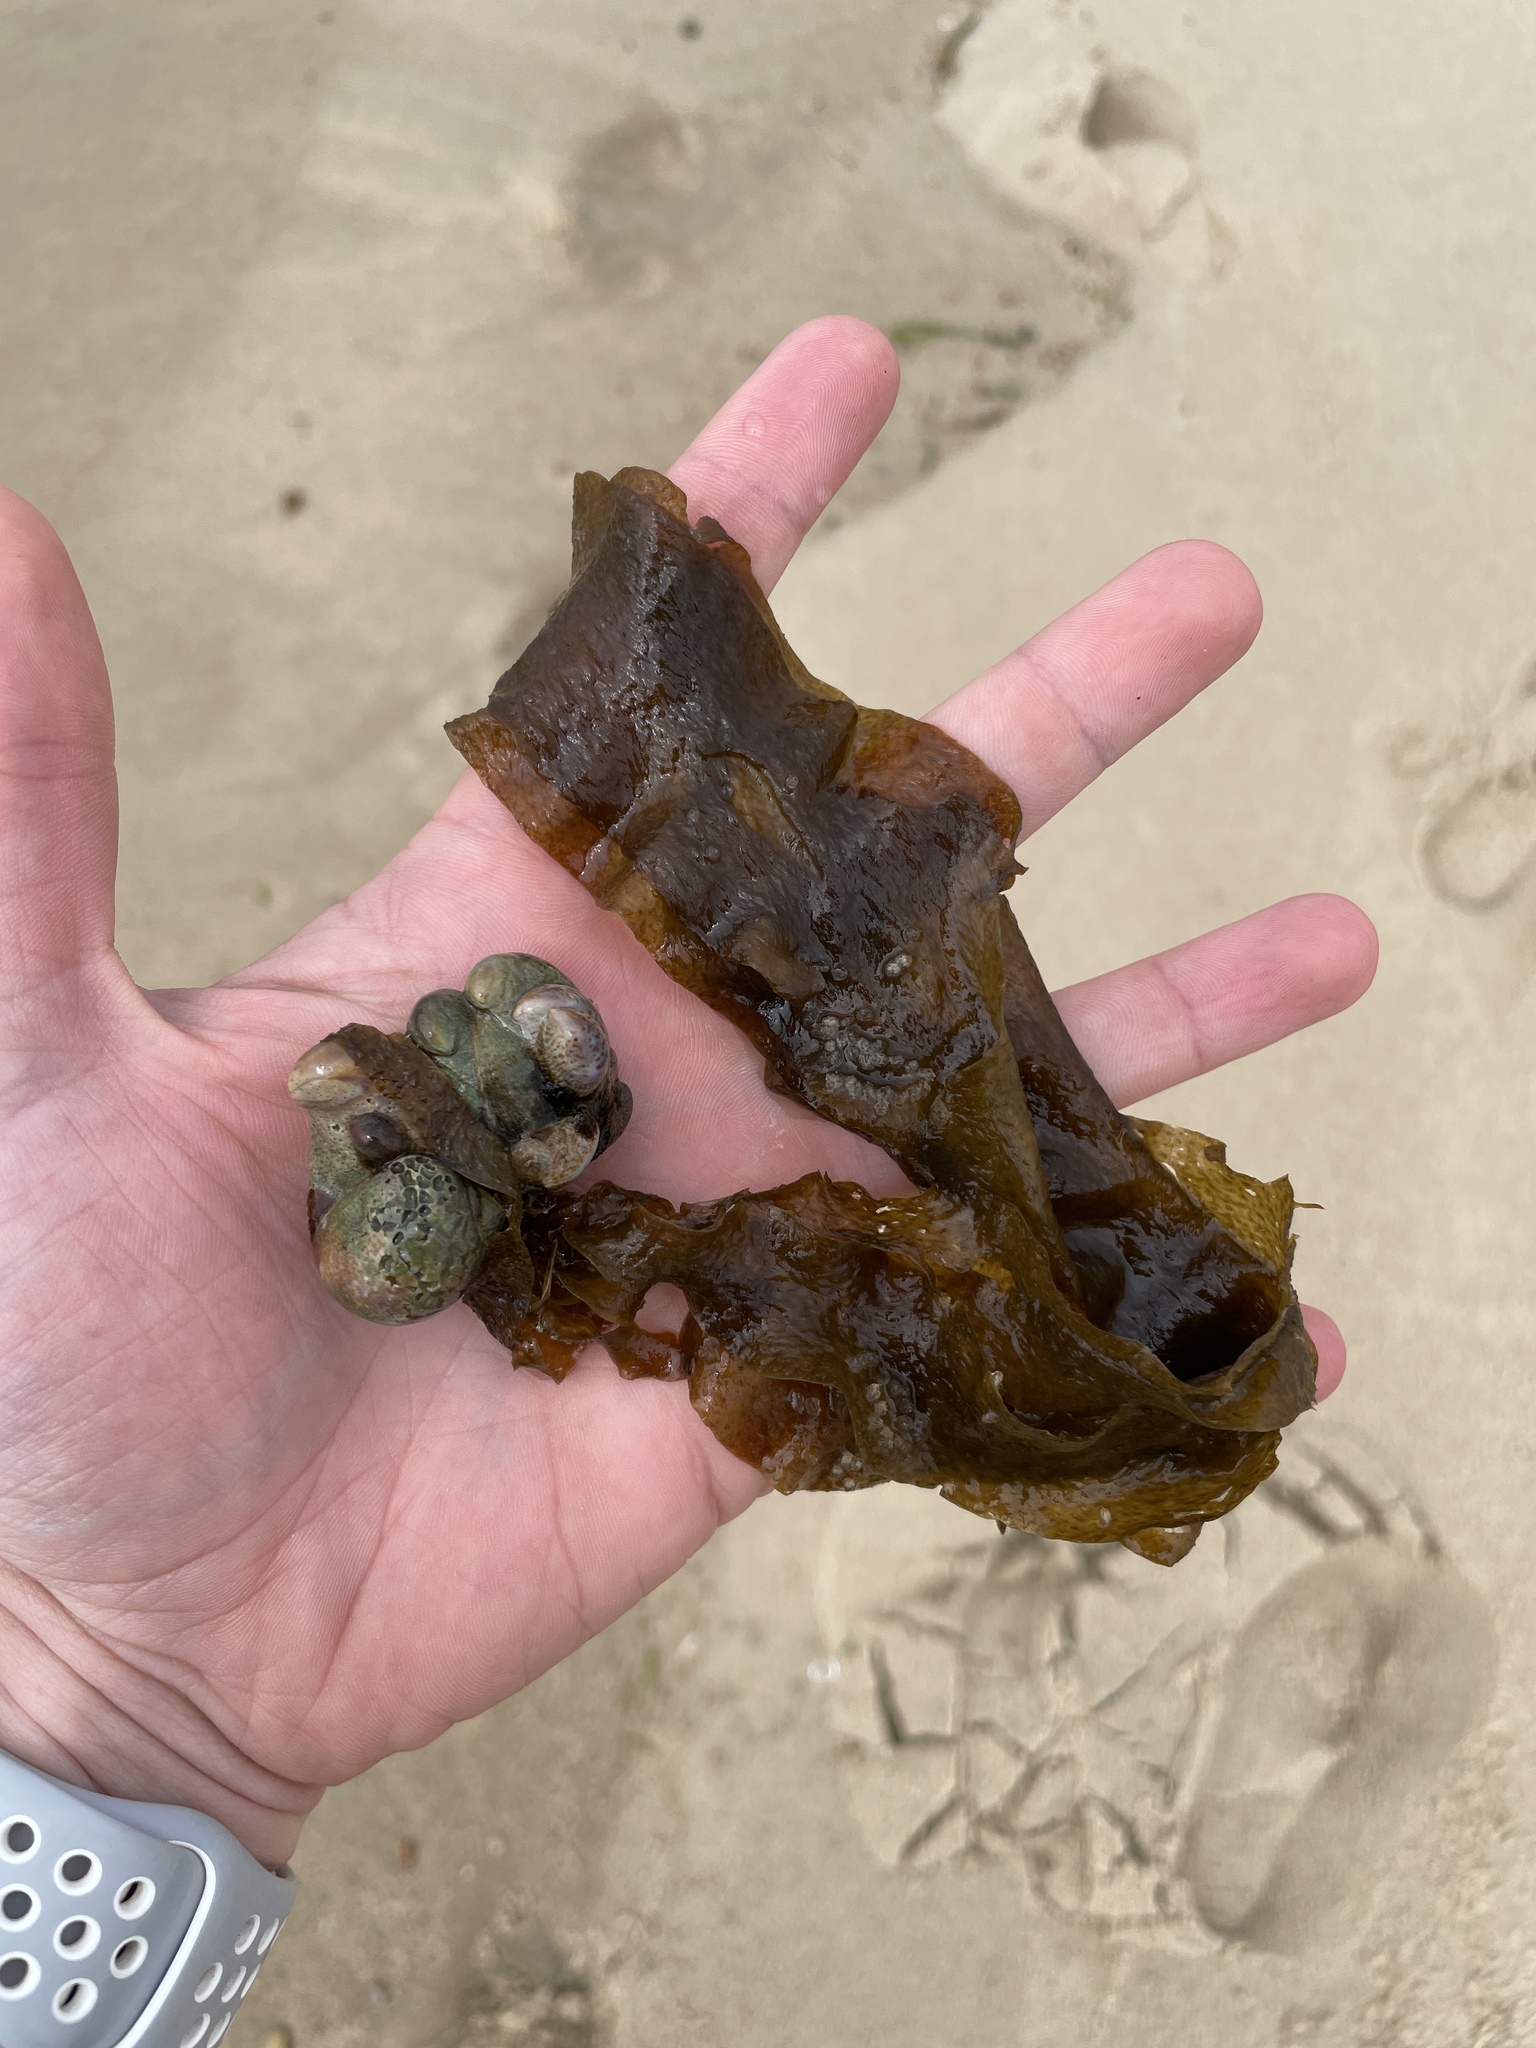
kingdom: Chromista
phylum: Ochrophyta
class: Phaeophyceae
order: Laminariales
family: Laminariaceae
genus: Saccharina
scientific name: Saccharina latissima
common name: Poor man's weather glass
